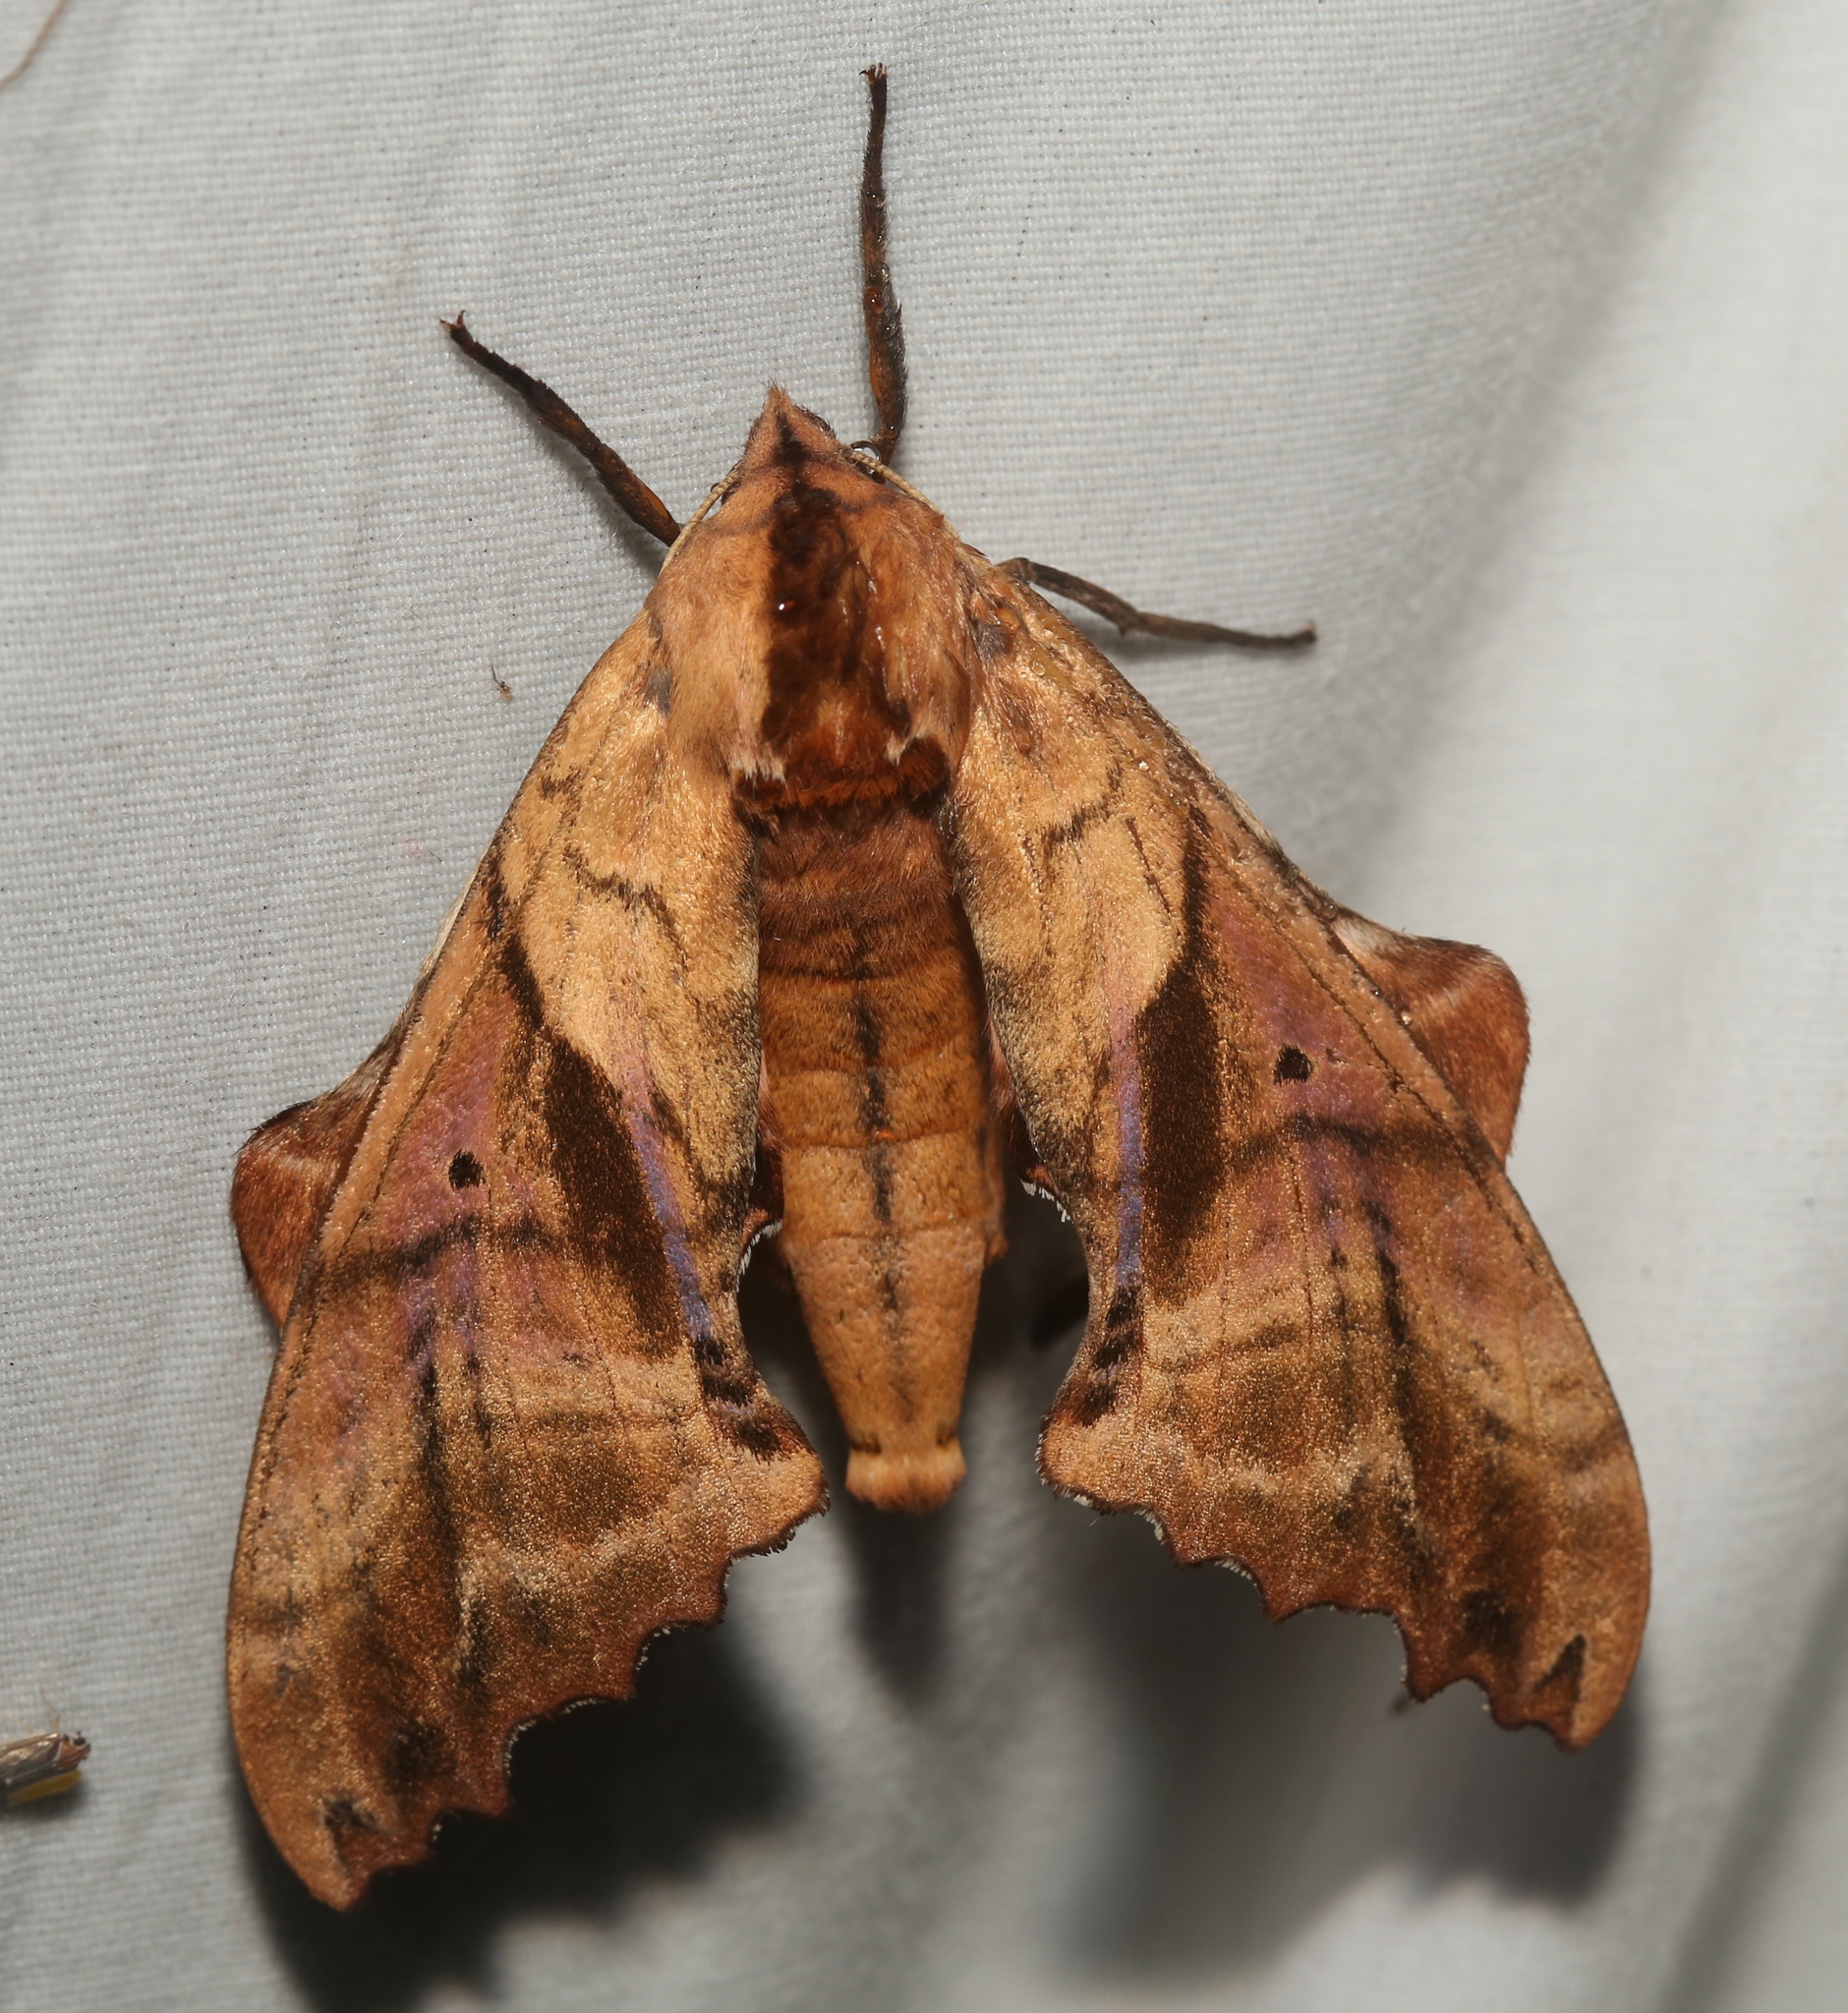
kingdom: Animalia
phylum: Arthropoda
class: Insecta
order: Lepidoptera
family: Sphingidae
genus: Paonias
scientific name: Paonias excaecata
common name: Blind-eyed sphinx
